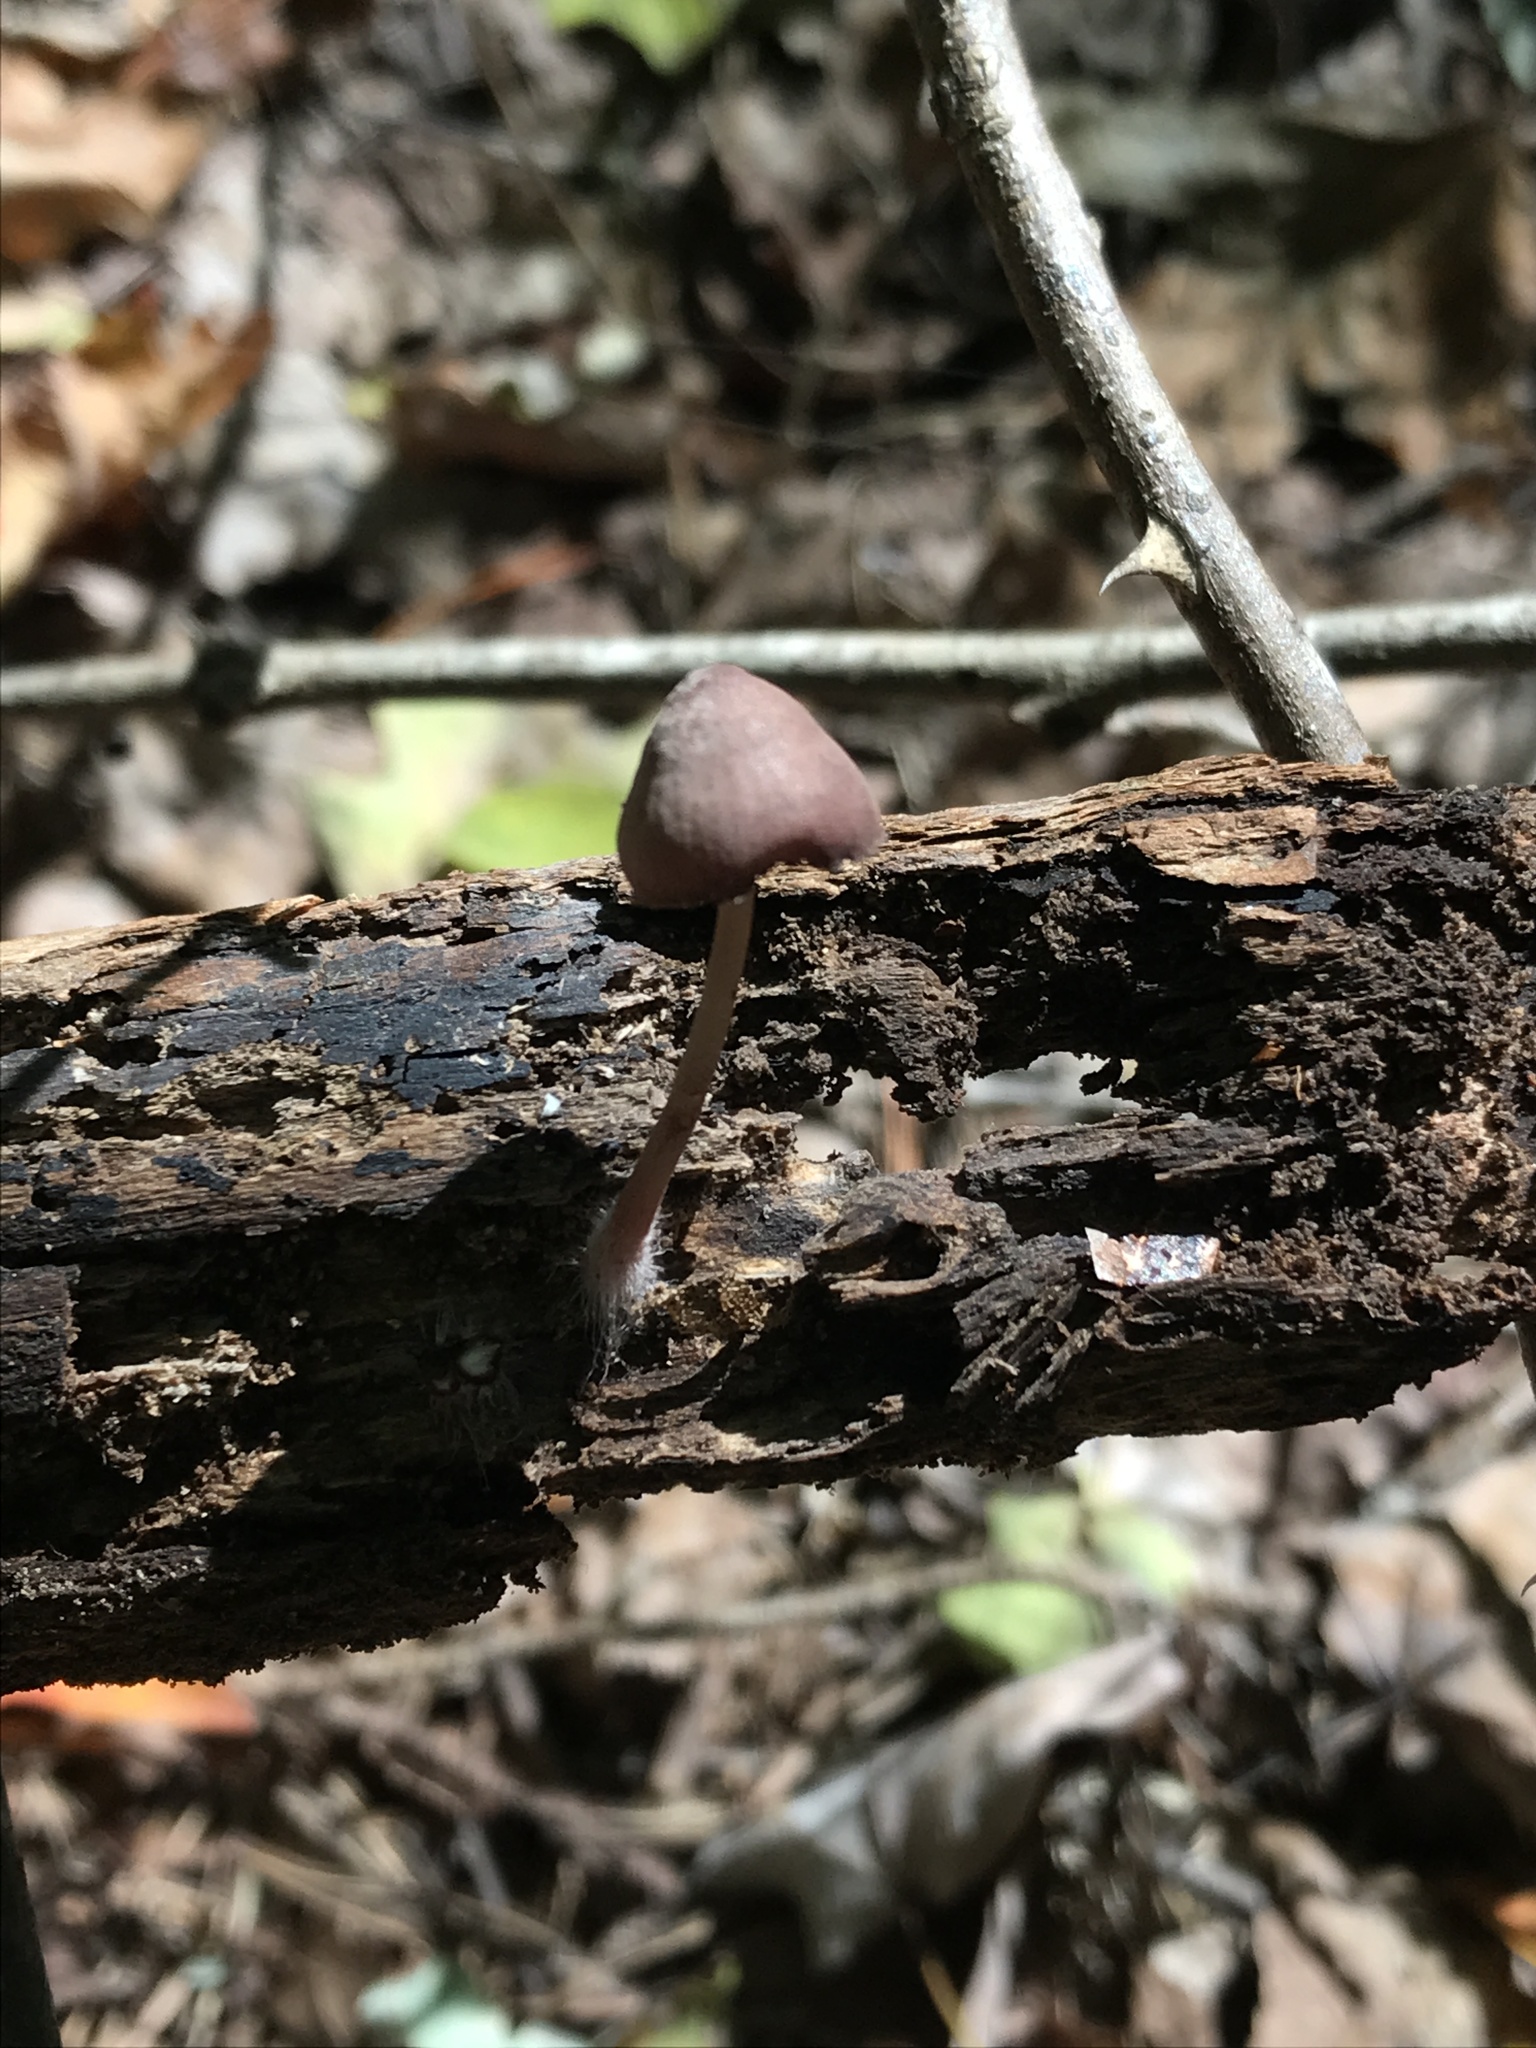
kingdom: Fungi
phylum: Basidiomycota
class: Agaricomycetes
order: Agaricales
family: Mycenaceae
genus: Mycena
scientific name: Mycena haematopus
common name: Burgundydrop bonnet
